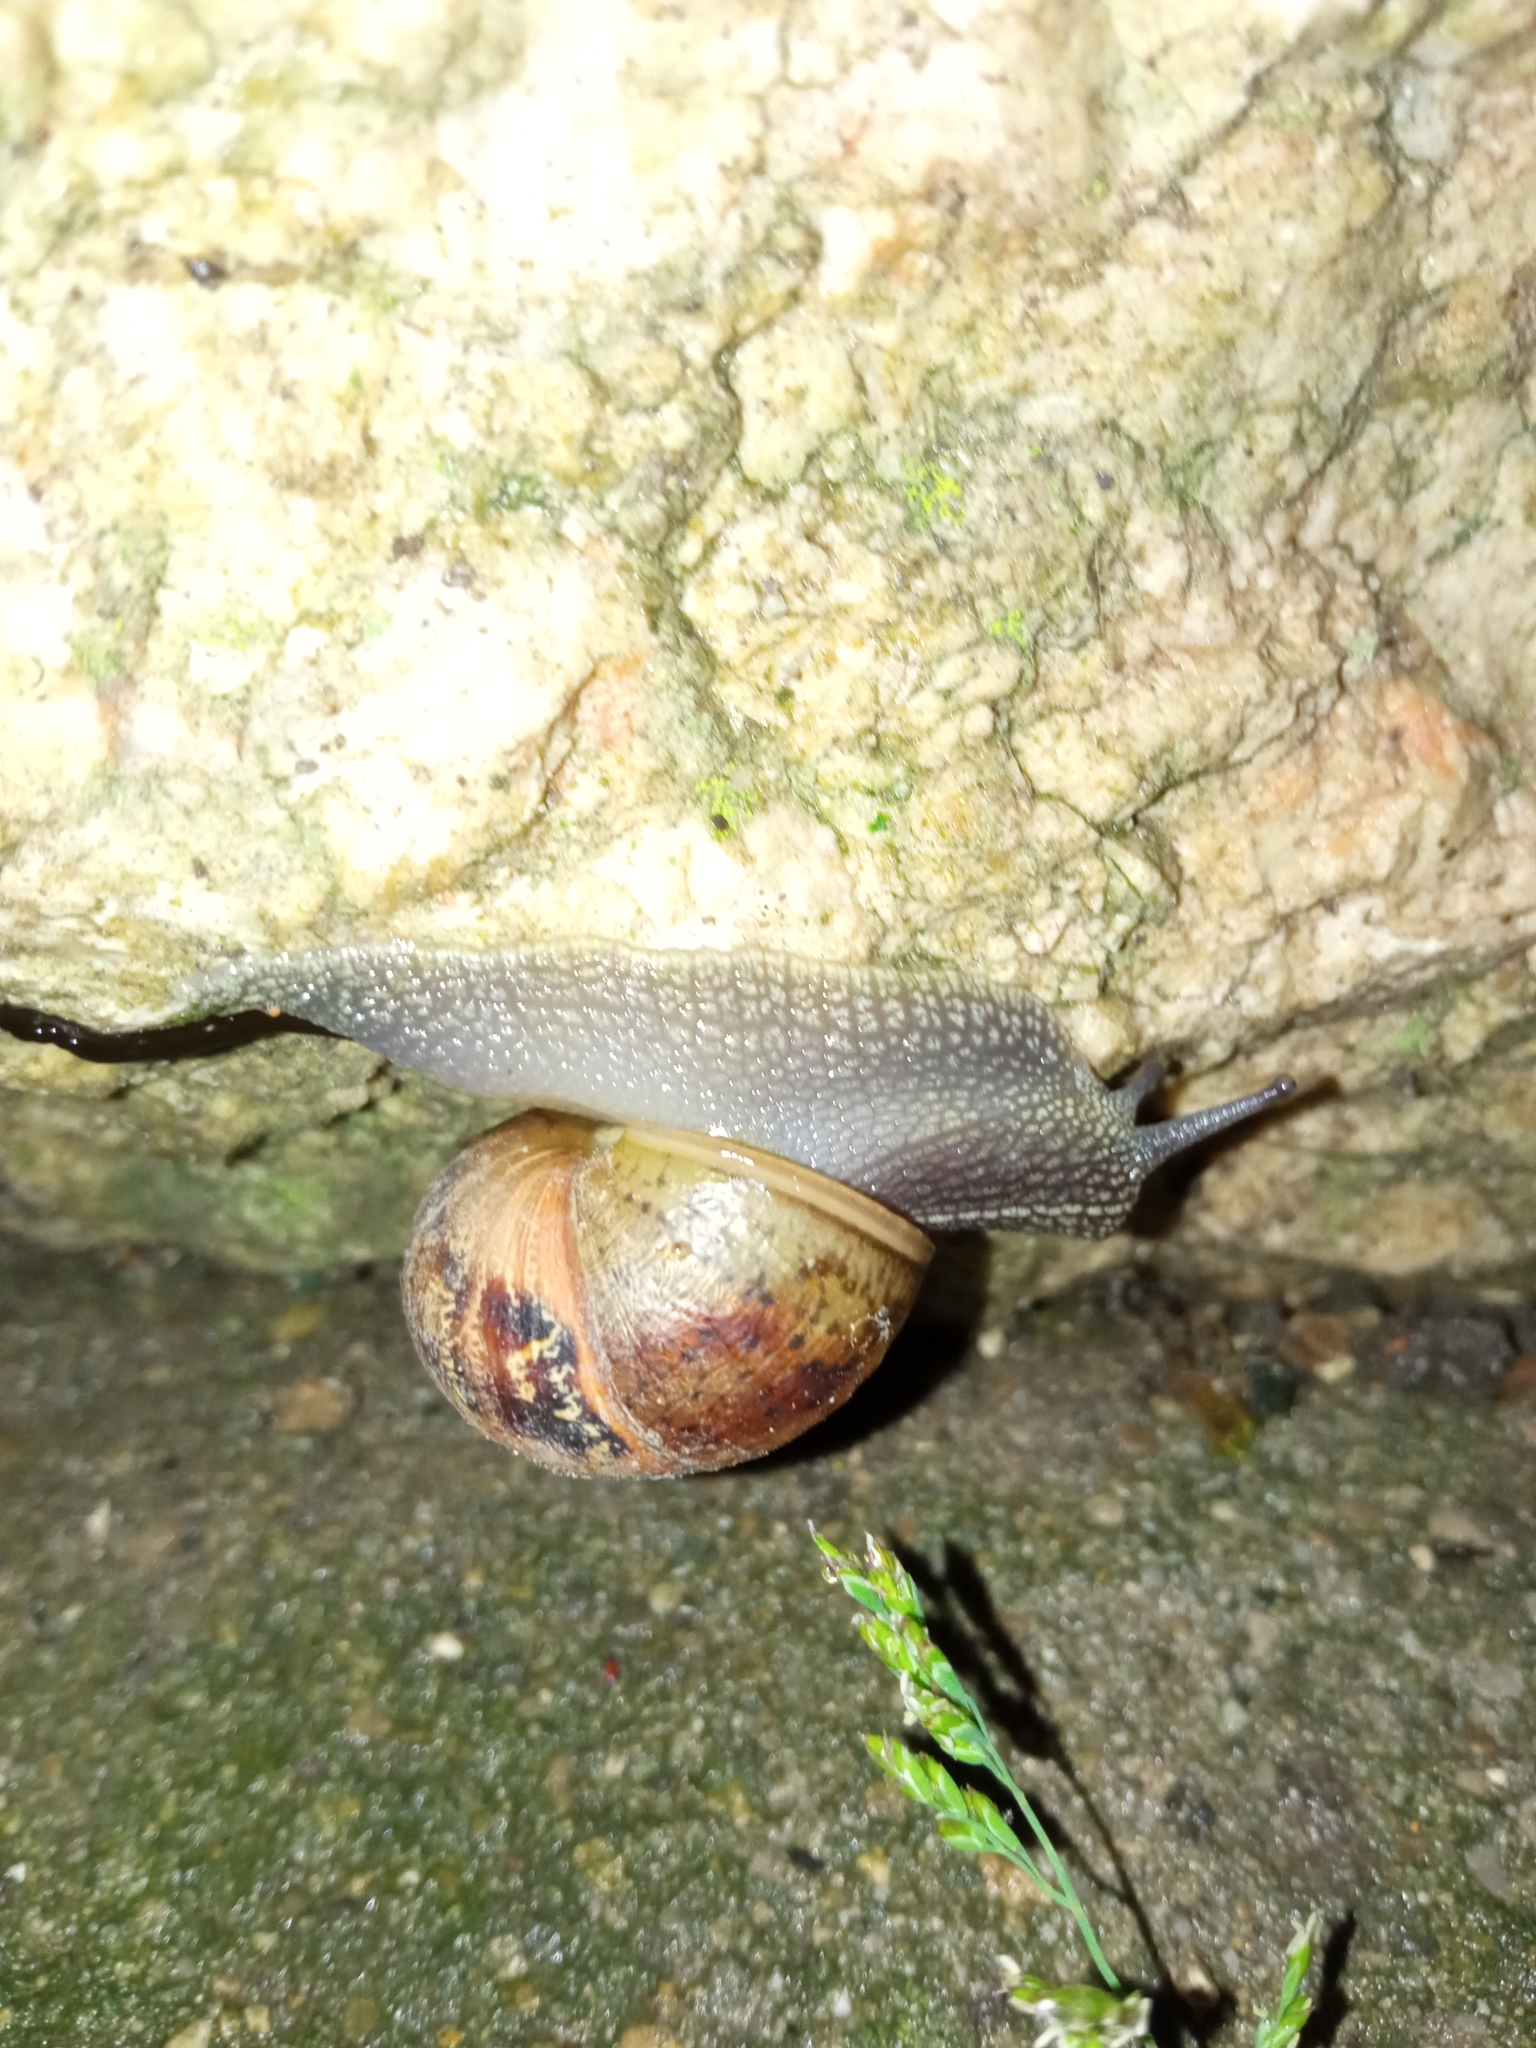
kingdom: Animalia
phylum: Mollusca
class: Gastropoda
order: Stylommatophora
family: Helicidae
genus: Cornu
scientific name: Cornu aspersum
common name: Brown garden snail
